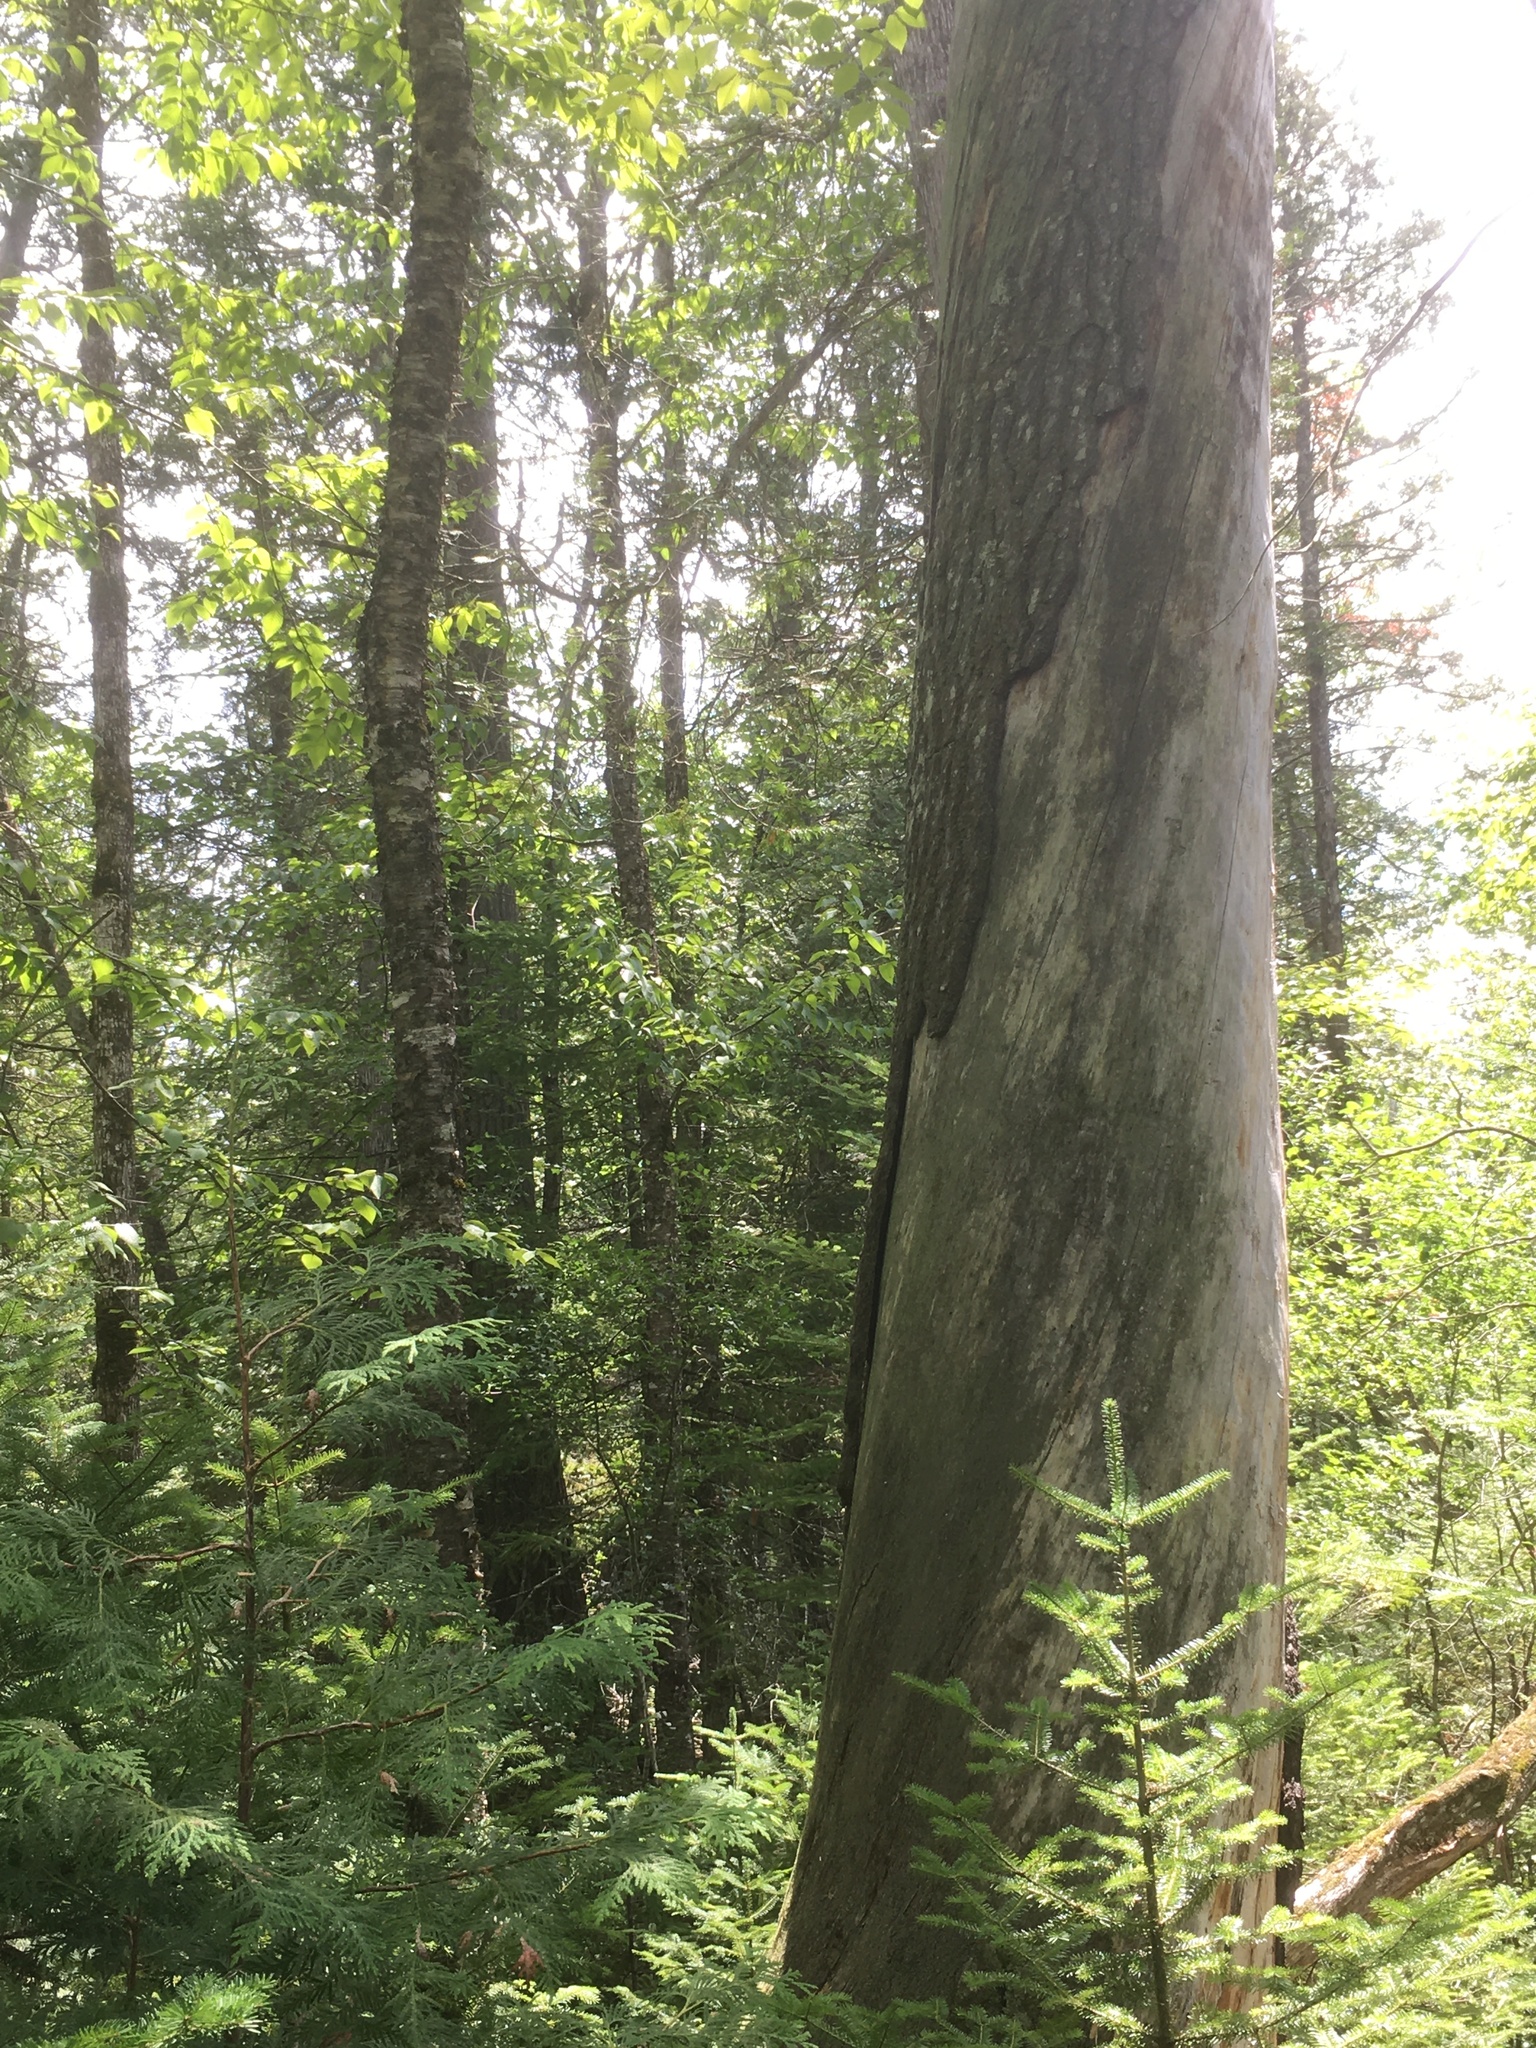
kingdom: Plantae
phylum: Tracheophyta
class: Magnoliopsida
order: Fagales
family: Betulaceae
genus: Betula
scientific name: Betula alleghaniensis
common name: Yellow birch
